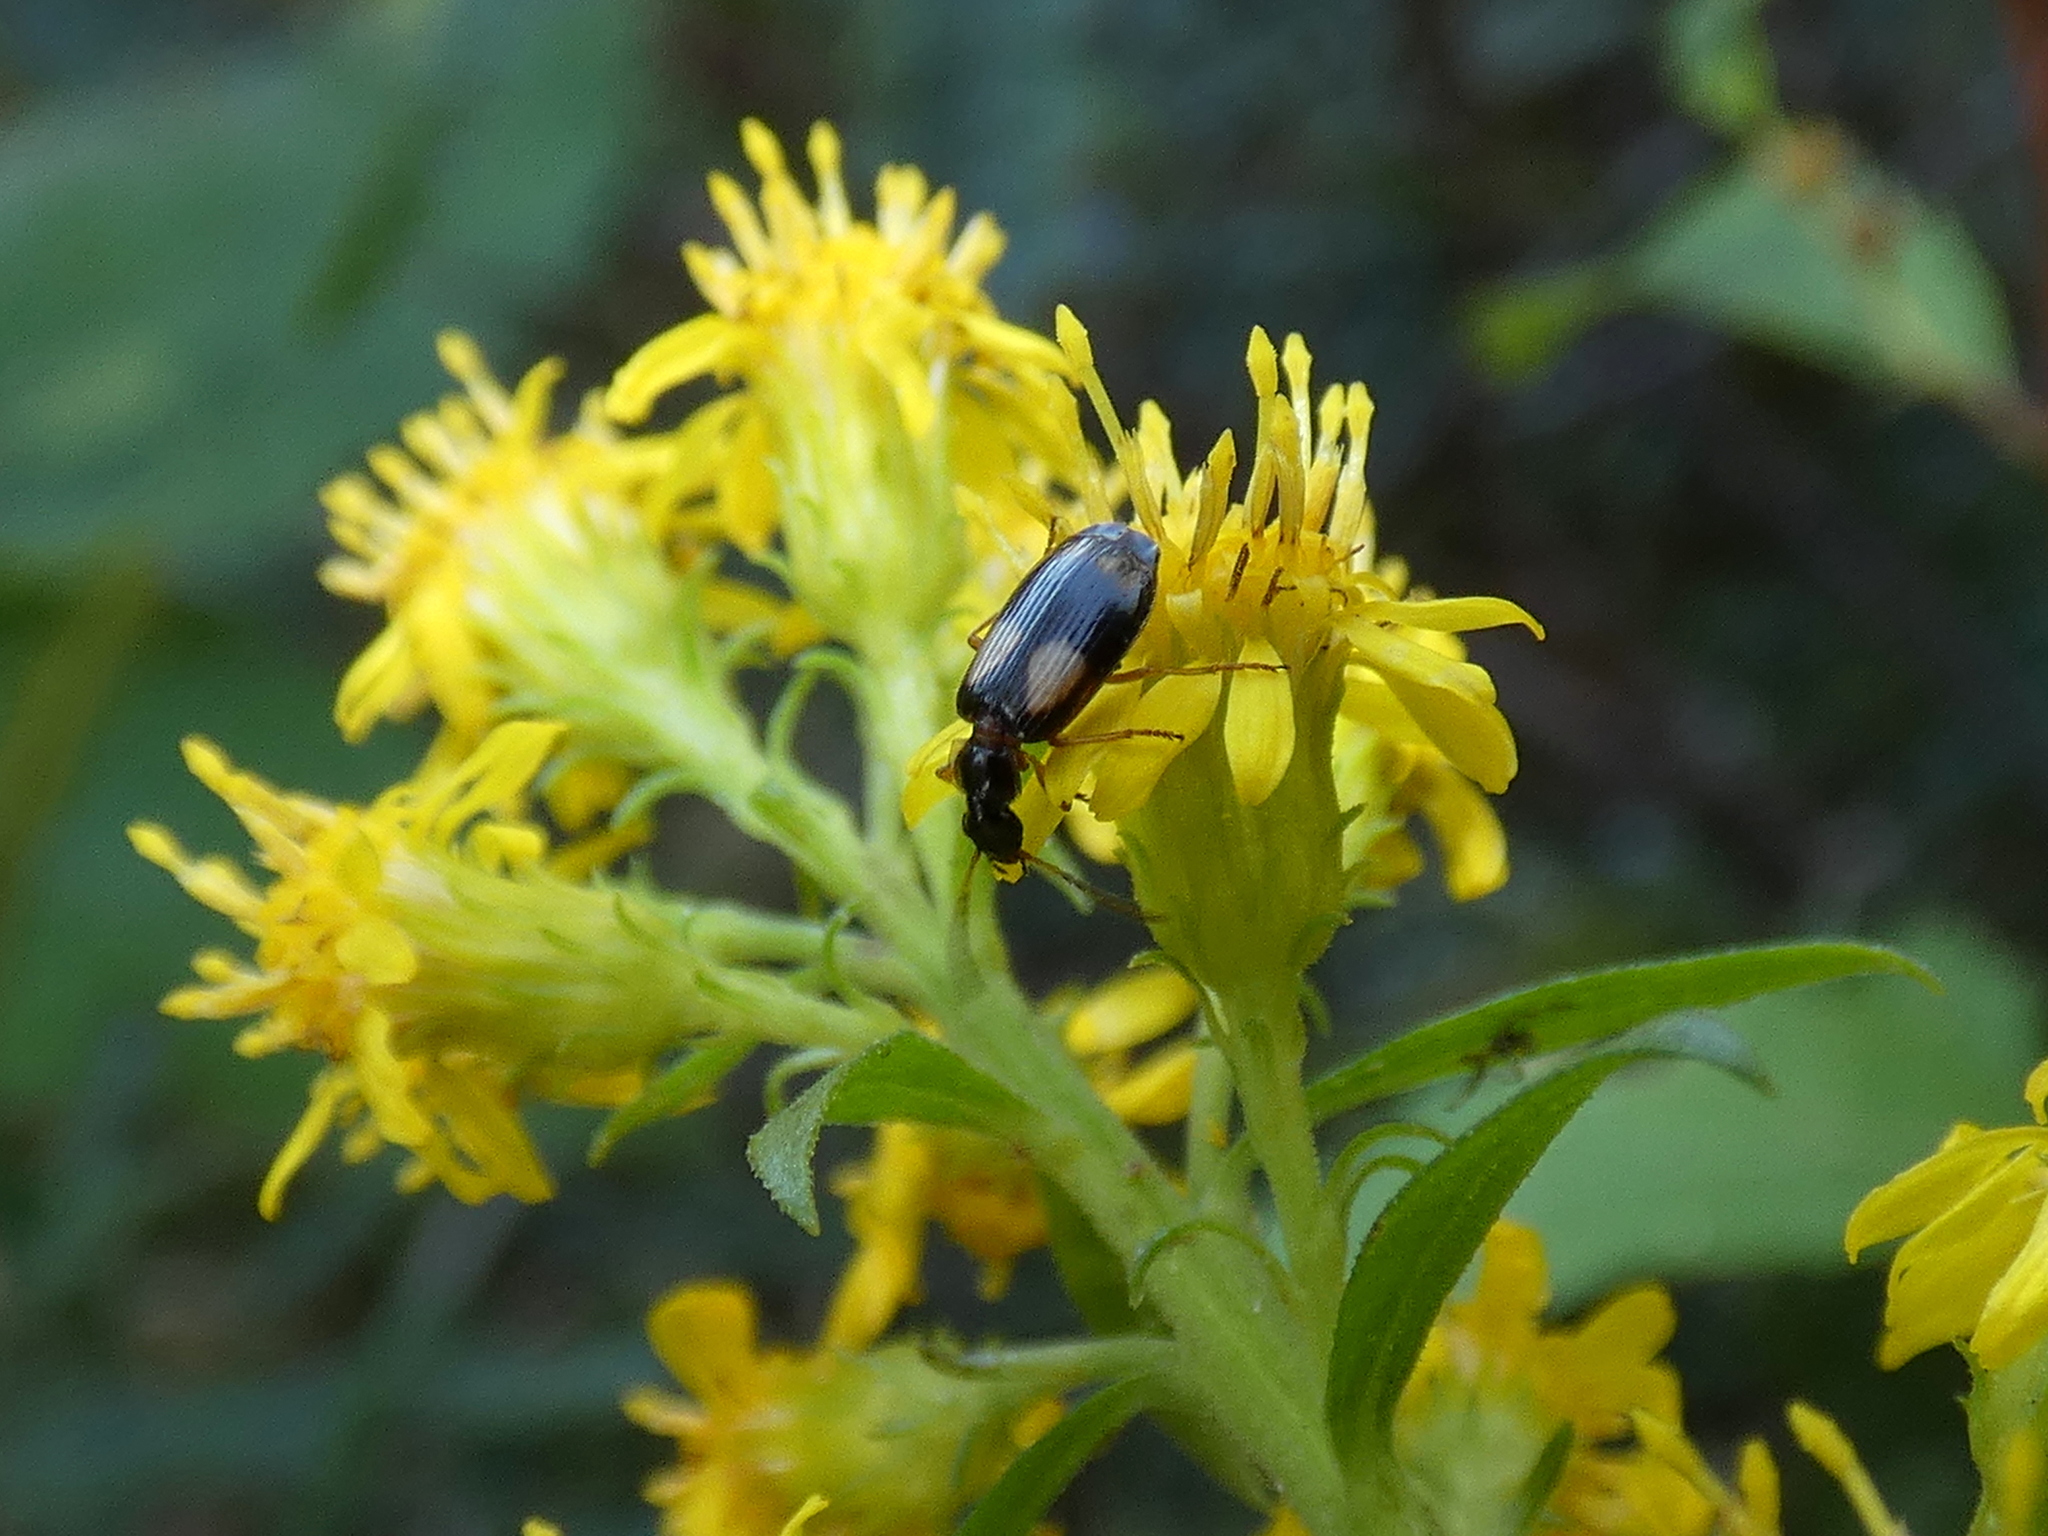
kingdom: Animalia
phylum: Arthropoda
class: Insecta
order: Coleoptera
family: Carabidae
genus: Lebia
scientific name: Lebia ornata
